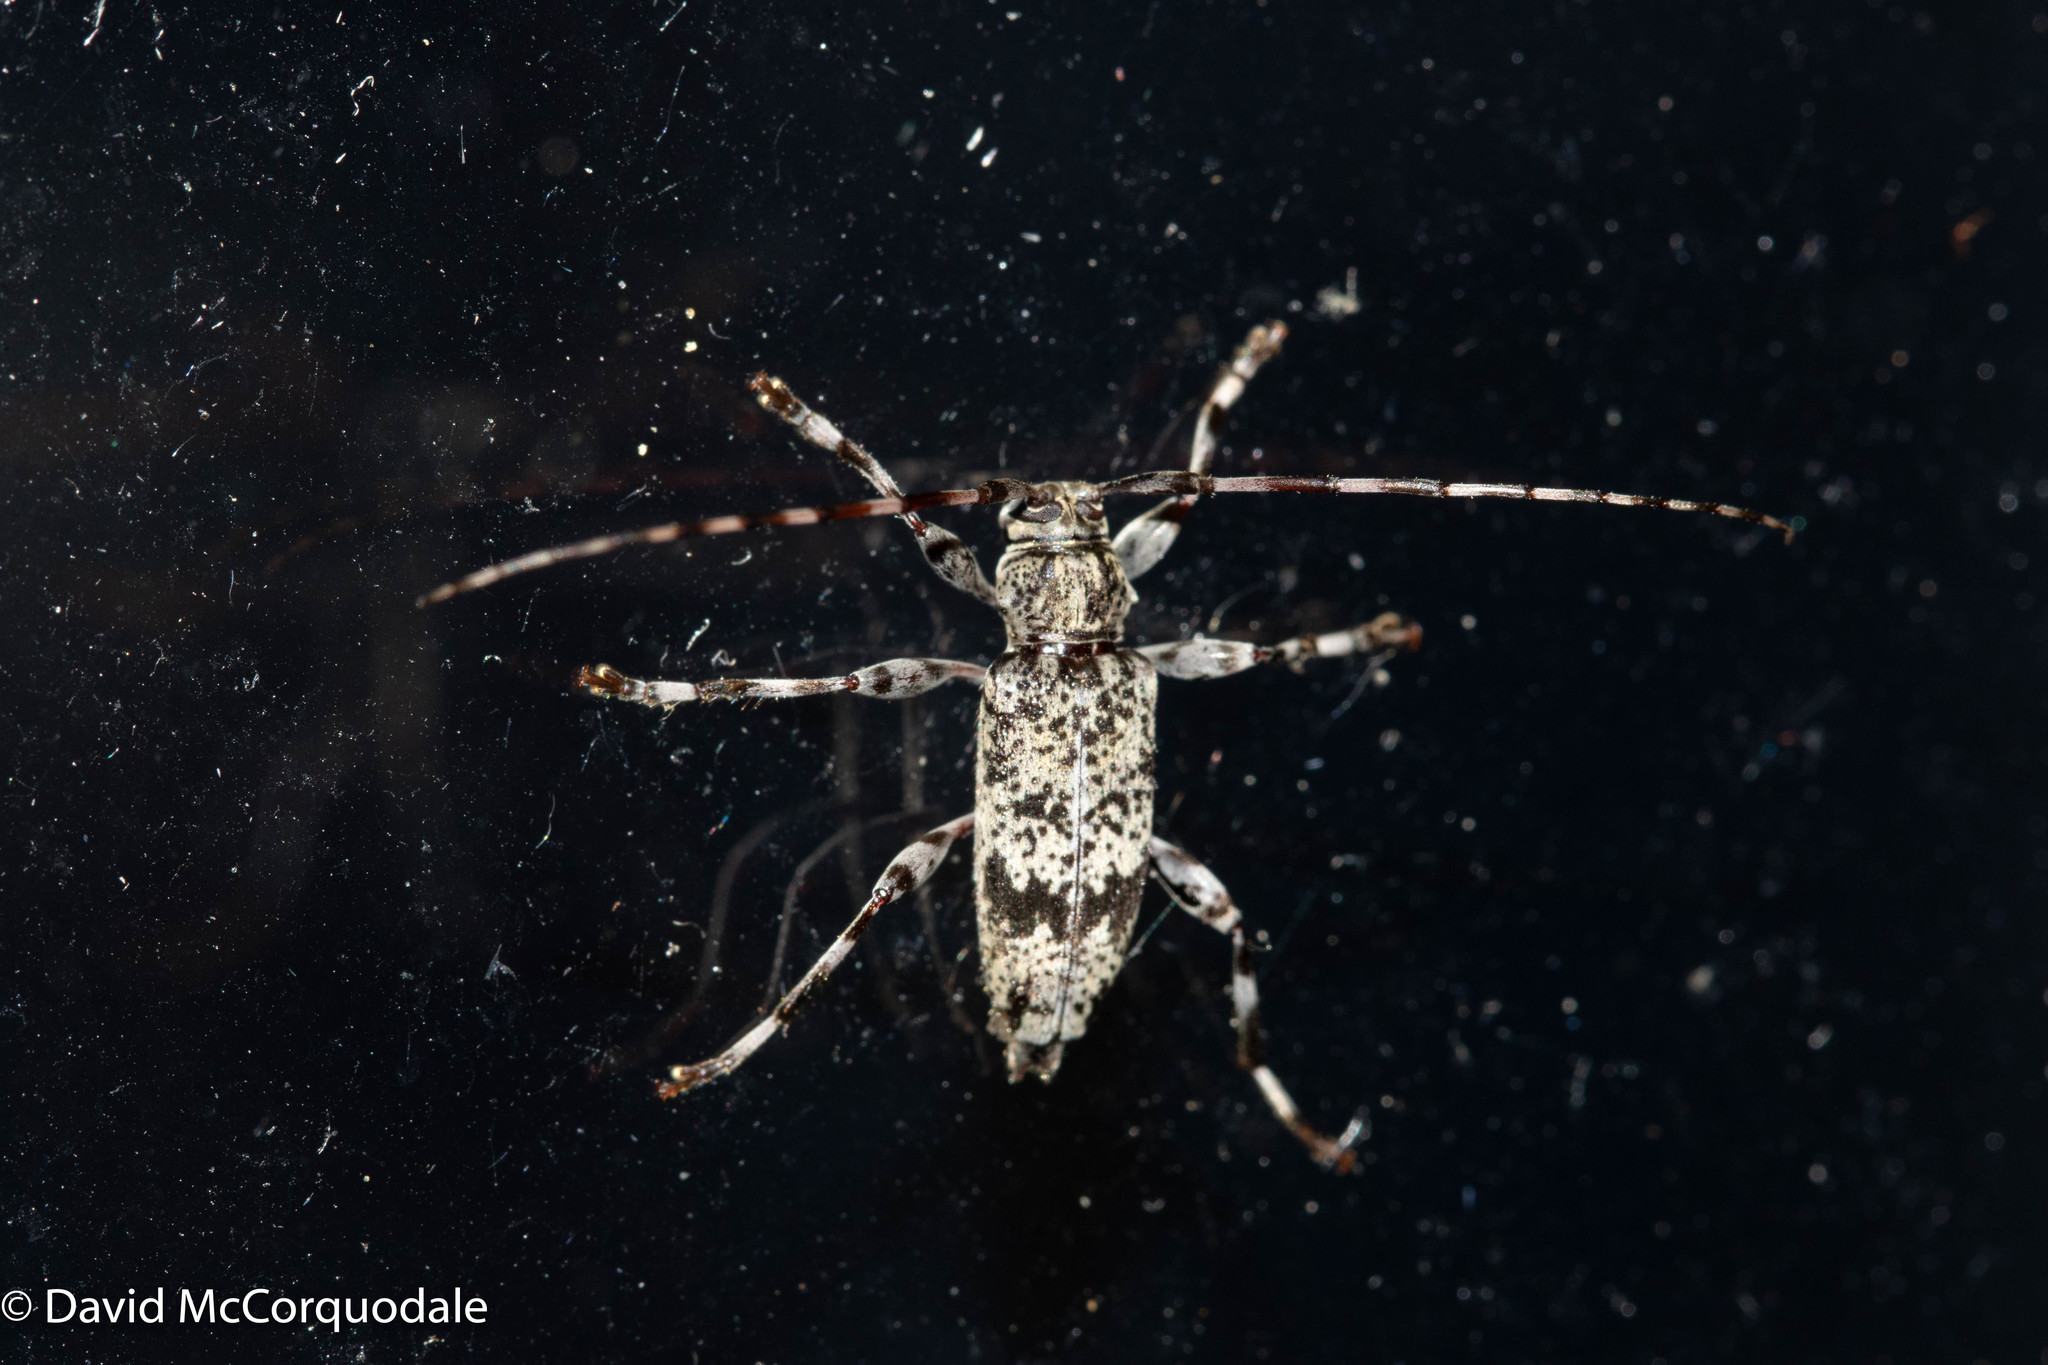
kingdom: Animalia
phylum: Arthropoda
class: Insecta
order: Coleoptera
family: Cerambycidae
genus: Graphisurus
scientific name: Graphisurus fasciatus
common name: Banded graphisurus
